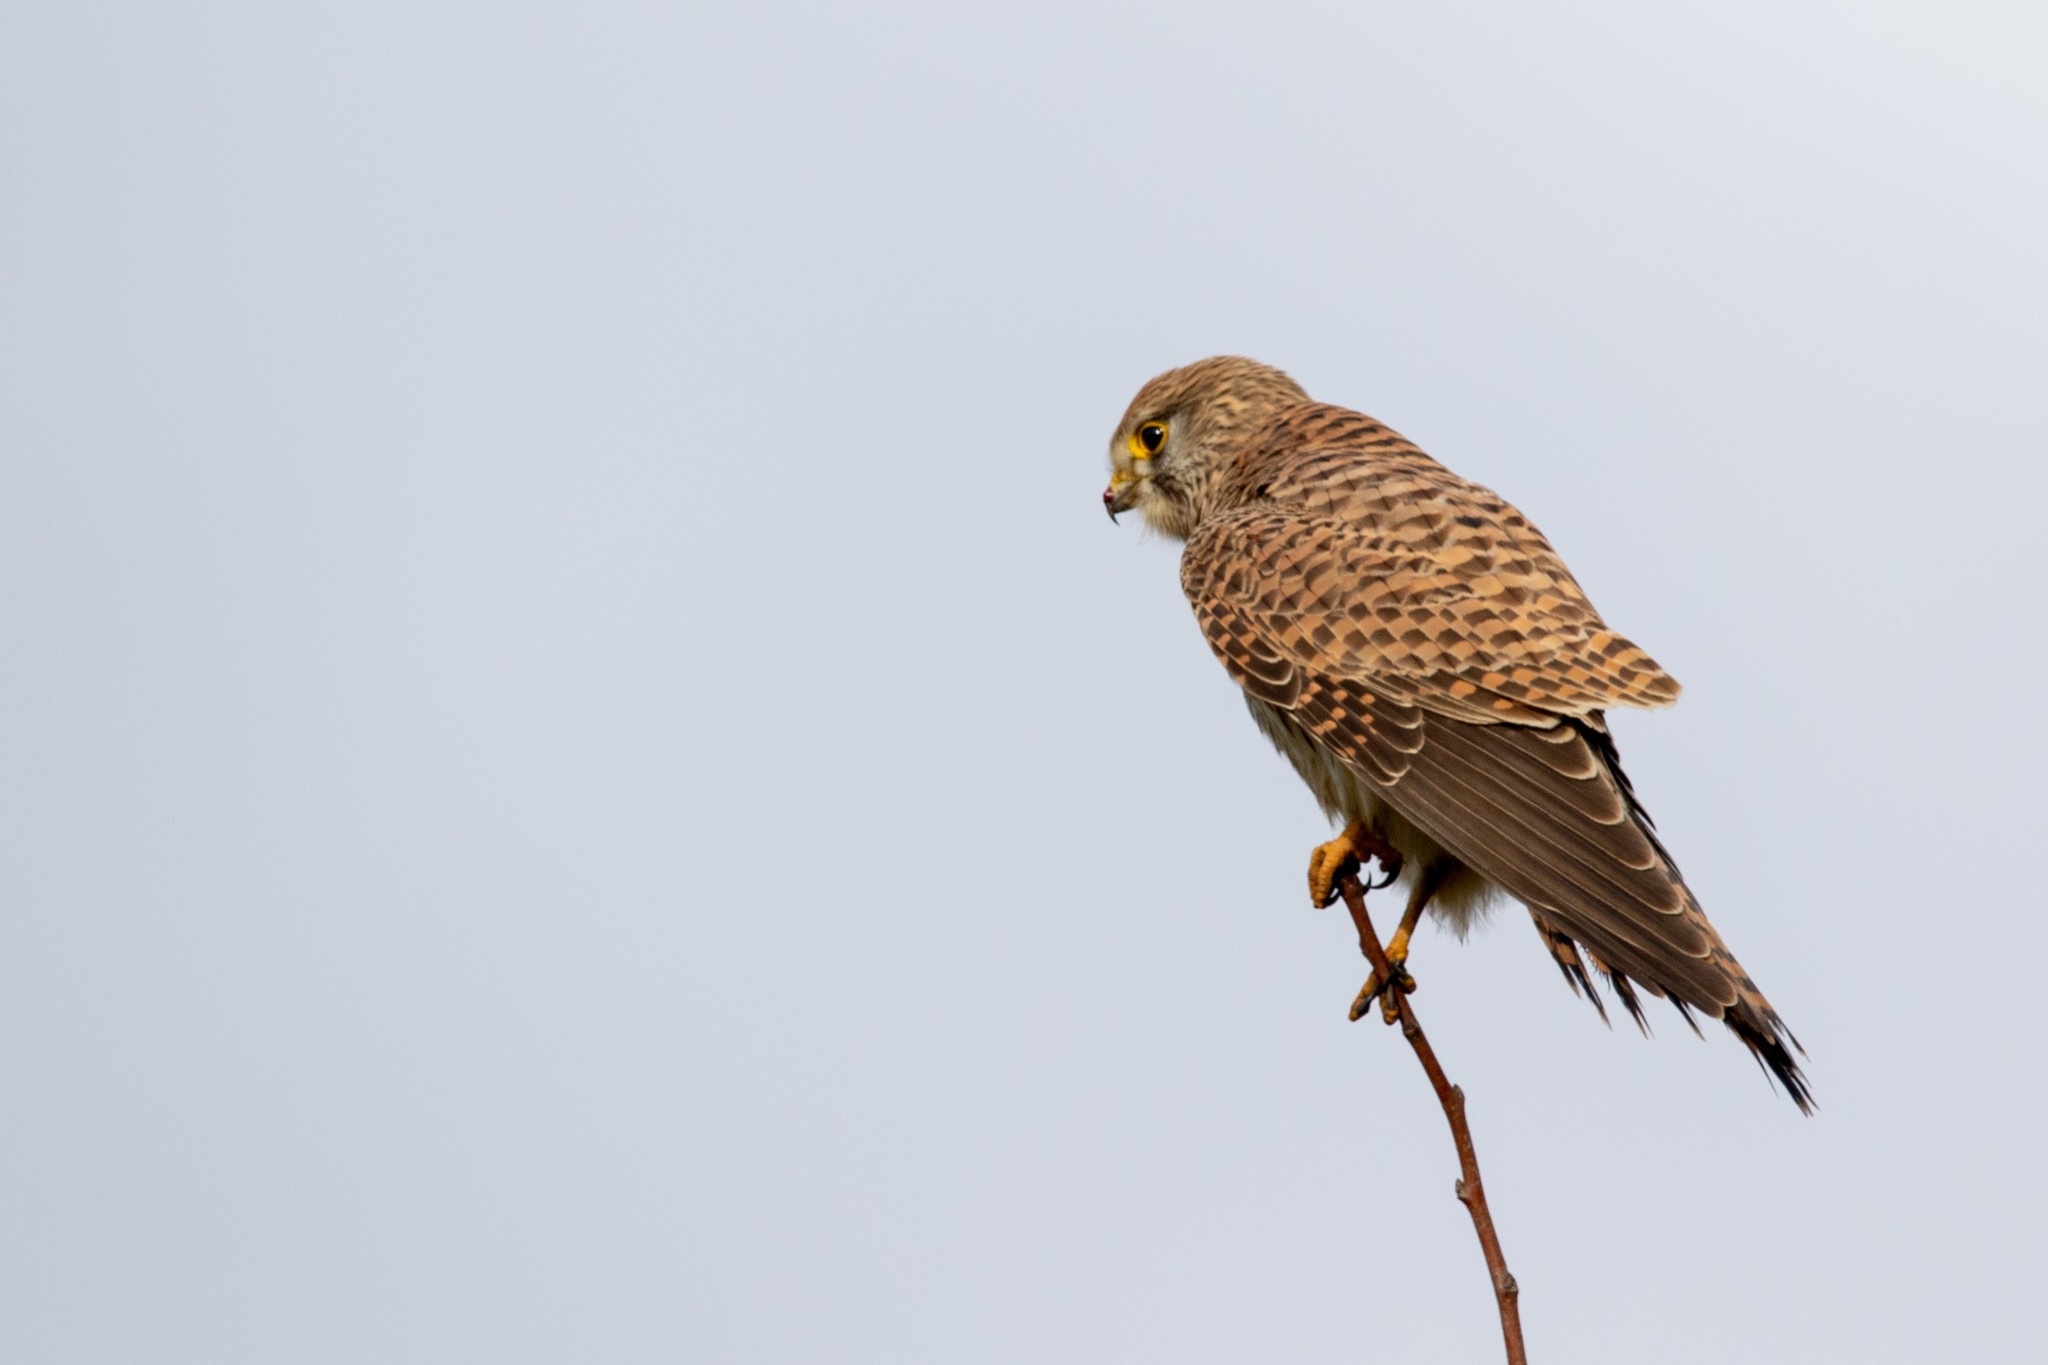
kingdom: Animalia
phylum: Chordata
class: Aves
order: Falconiformes
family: Falconidae
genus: Falco
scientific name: Falco tinnunculus
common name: Common kestrel
